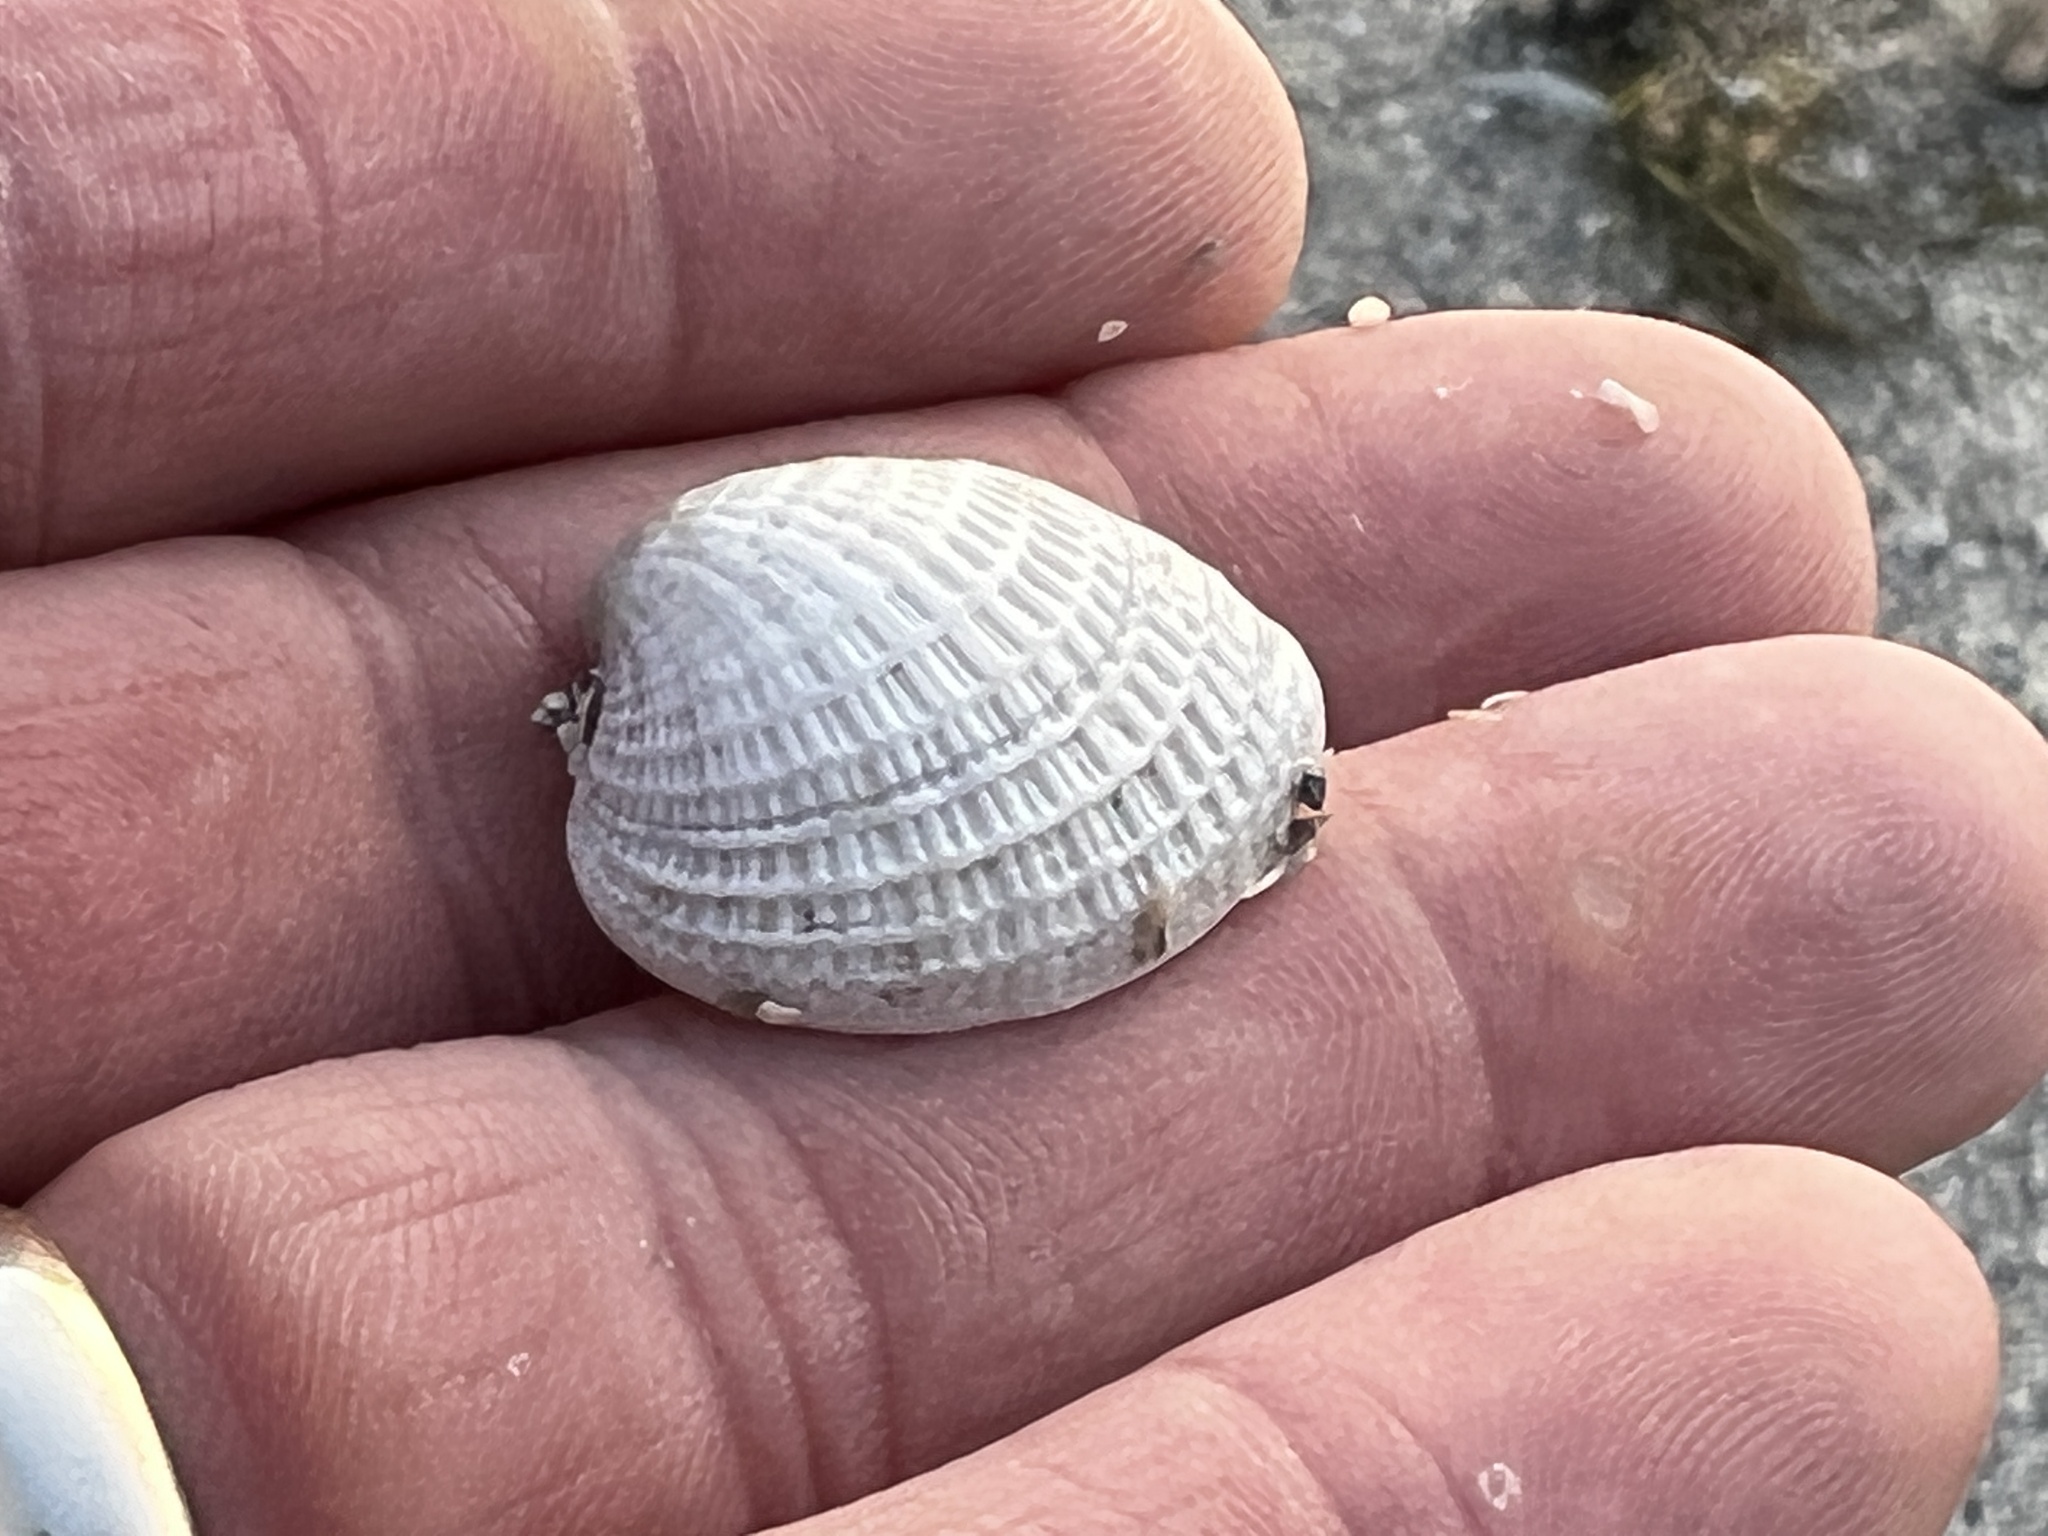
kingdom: Animalia
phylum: Mollusca
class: Bivalvia
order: Venerida
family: Veneridae
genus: Chione
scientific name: Chione elevata
